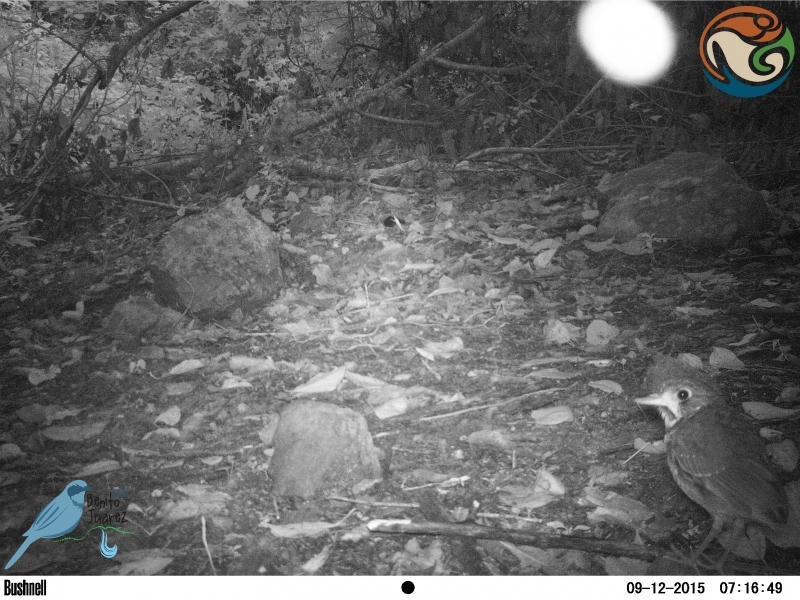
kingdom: Animalia
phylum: Chordata
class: Aves
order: Passeriformes
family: Grallariidae
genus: Grallaria
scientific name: Grallaria guatimalensis
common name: Scaled antpitta
